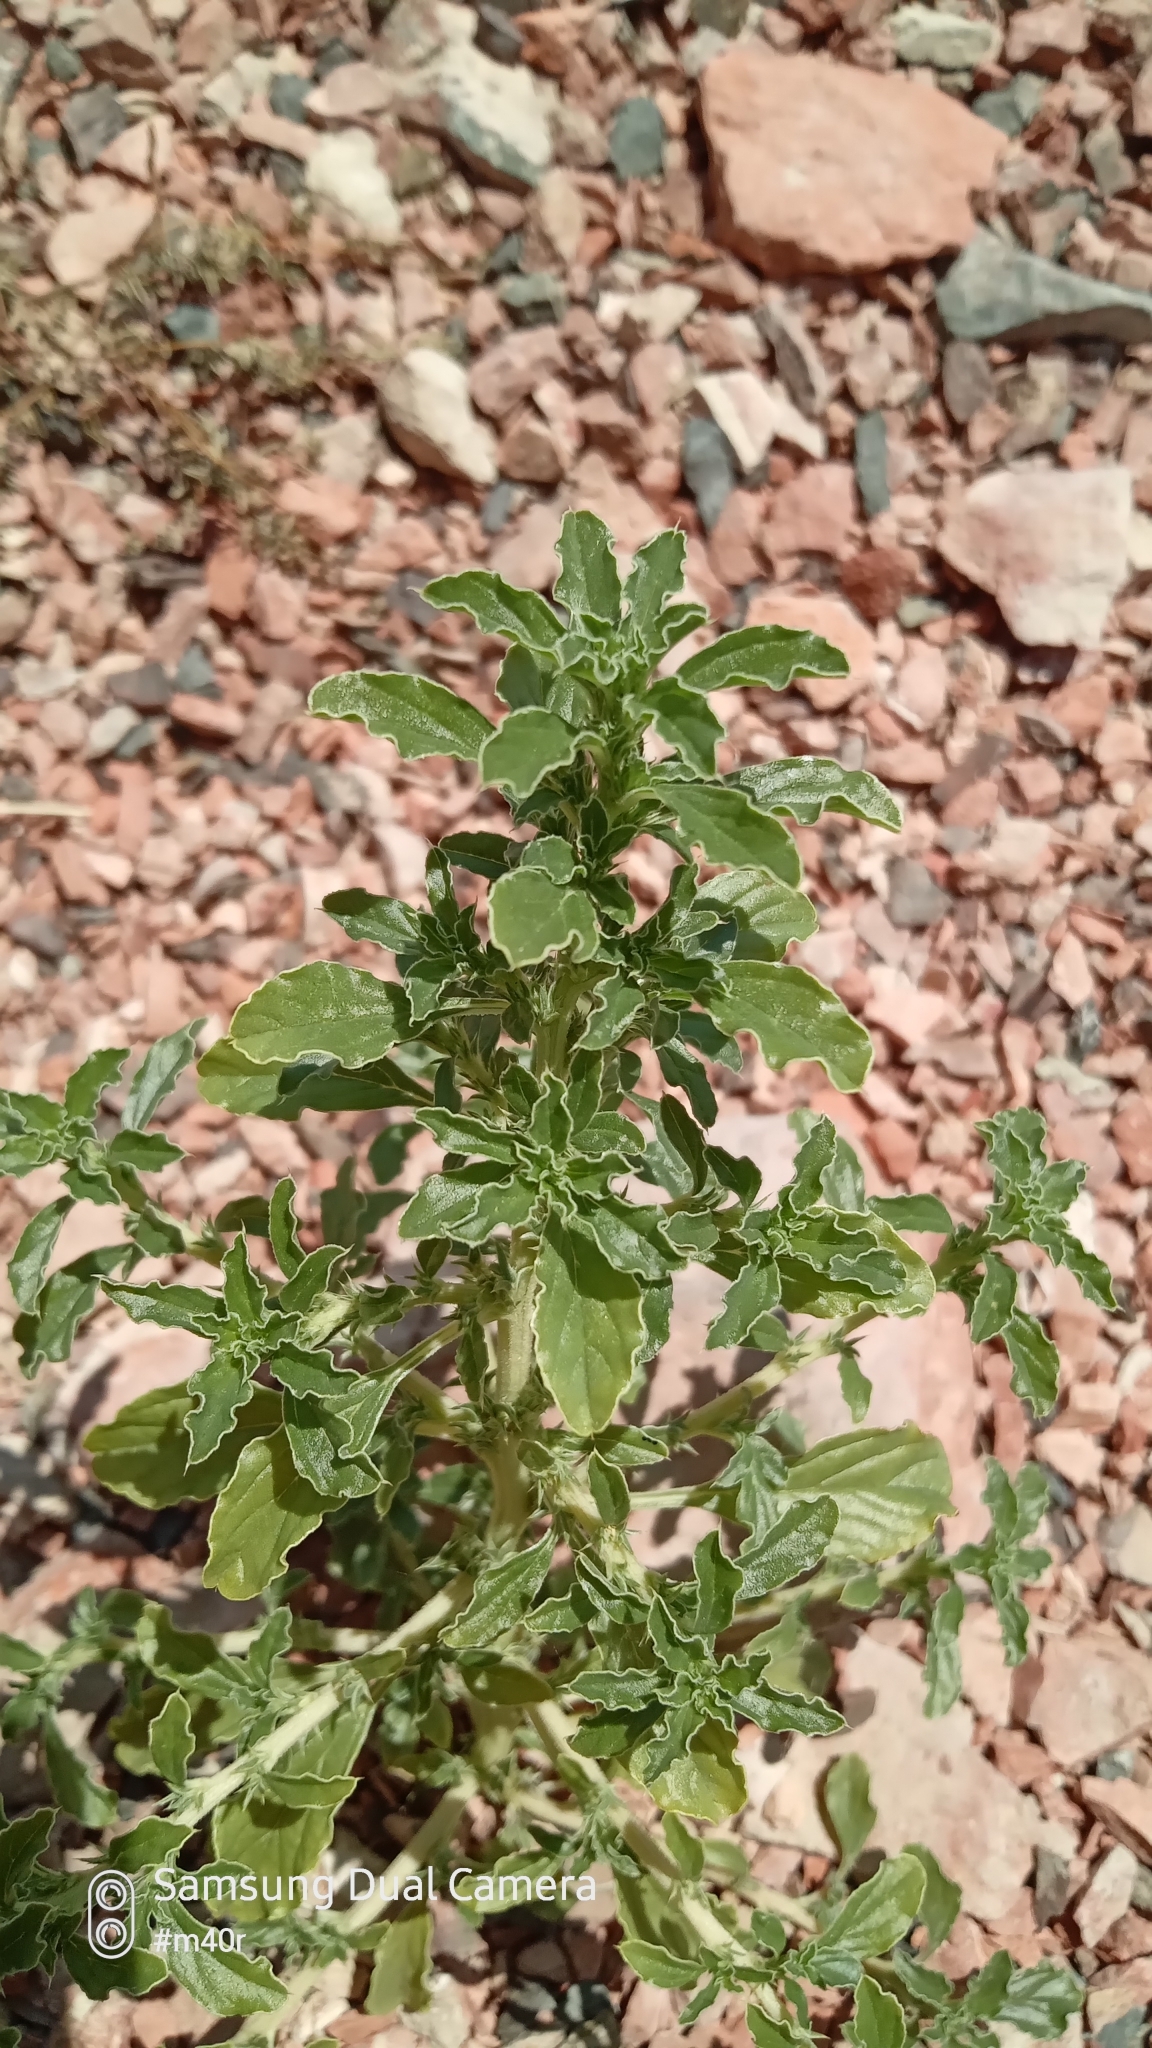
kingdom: Plantae
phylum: Tracheophyta
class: Magnoliopsida
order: Caryophyllales
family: Amaranthaceae
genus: Amaranthus
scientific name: Amaranthus albus
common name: White pigweed
